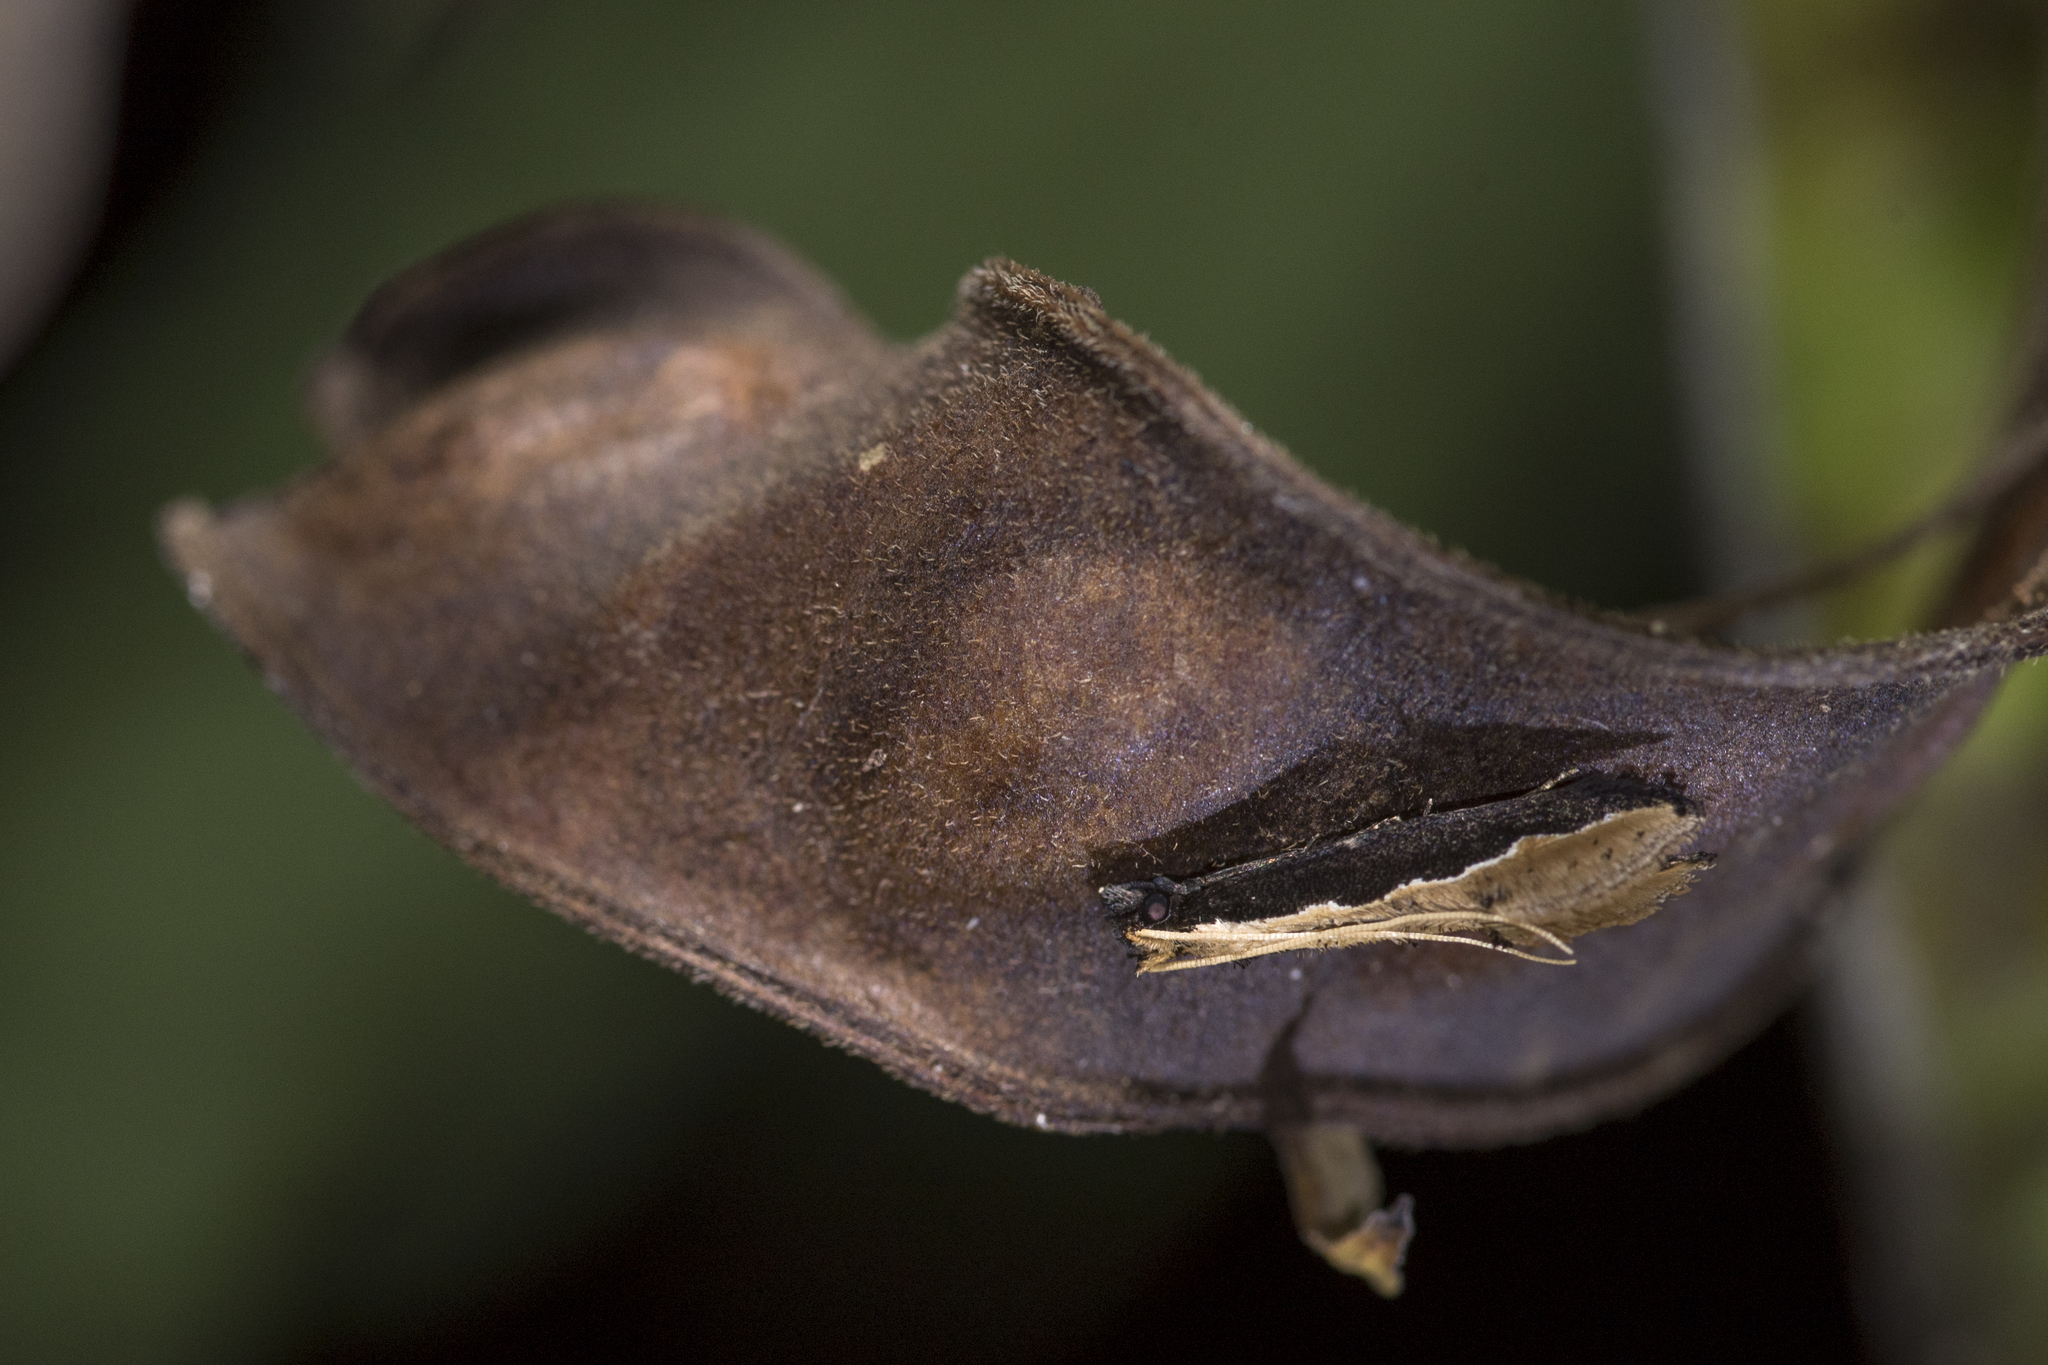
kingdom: Animalia
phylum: Arthropoda
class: Insecta
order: Lepidoptera
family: Tineidae
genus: Pyloetis
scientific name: Pyloetis mimosae
